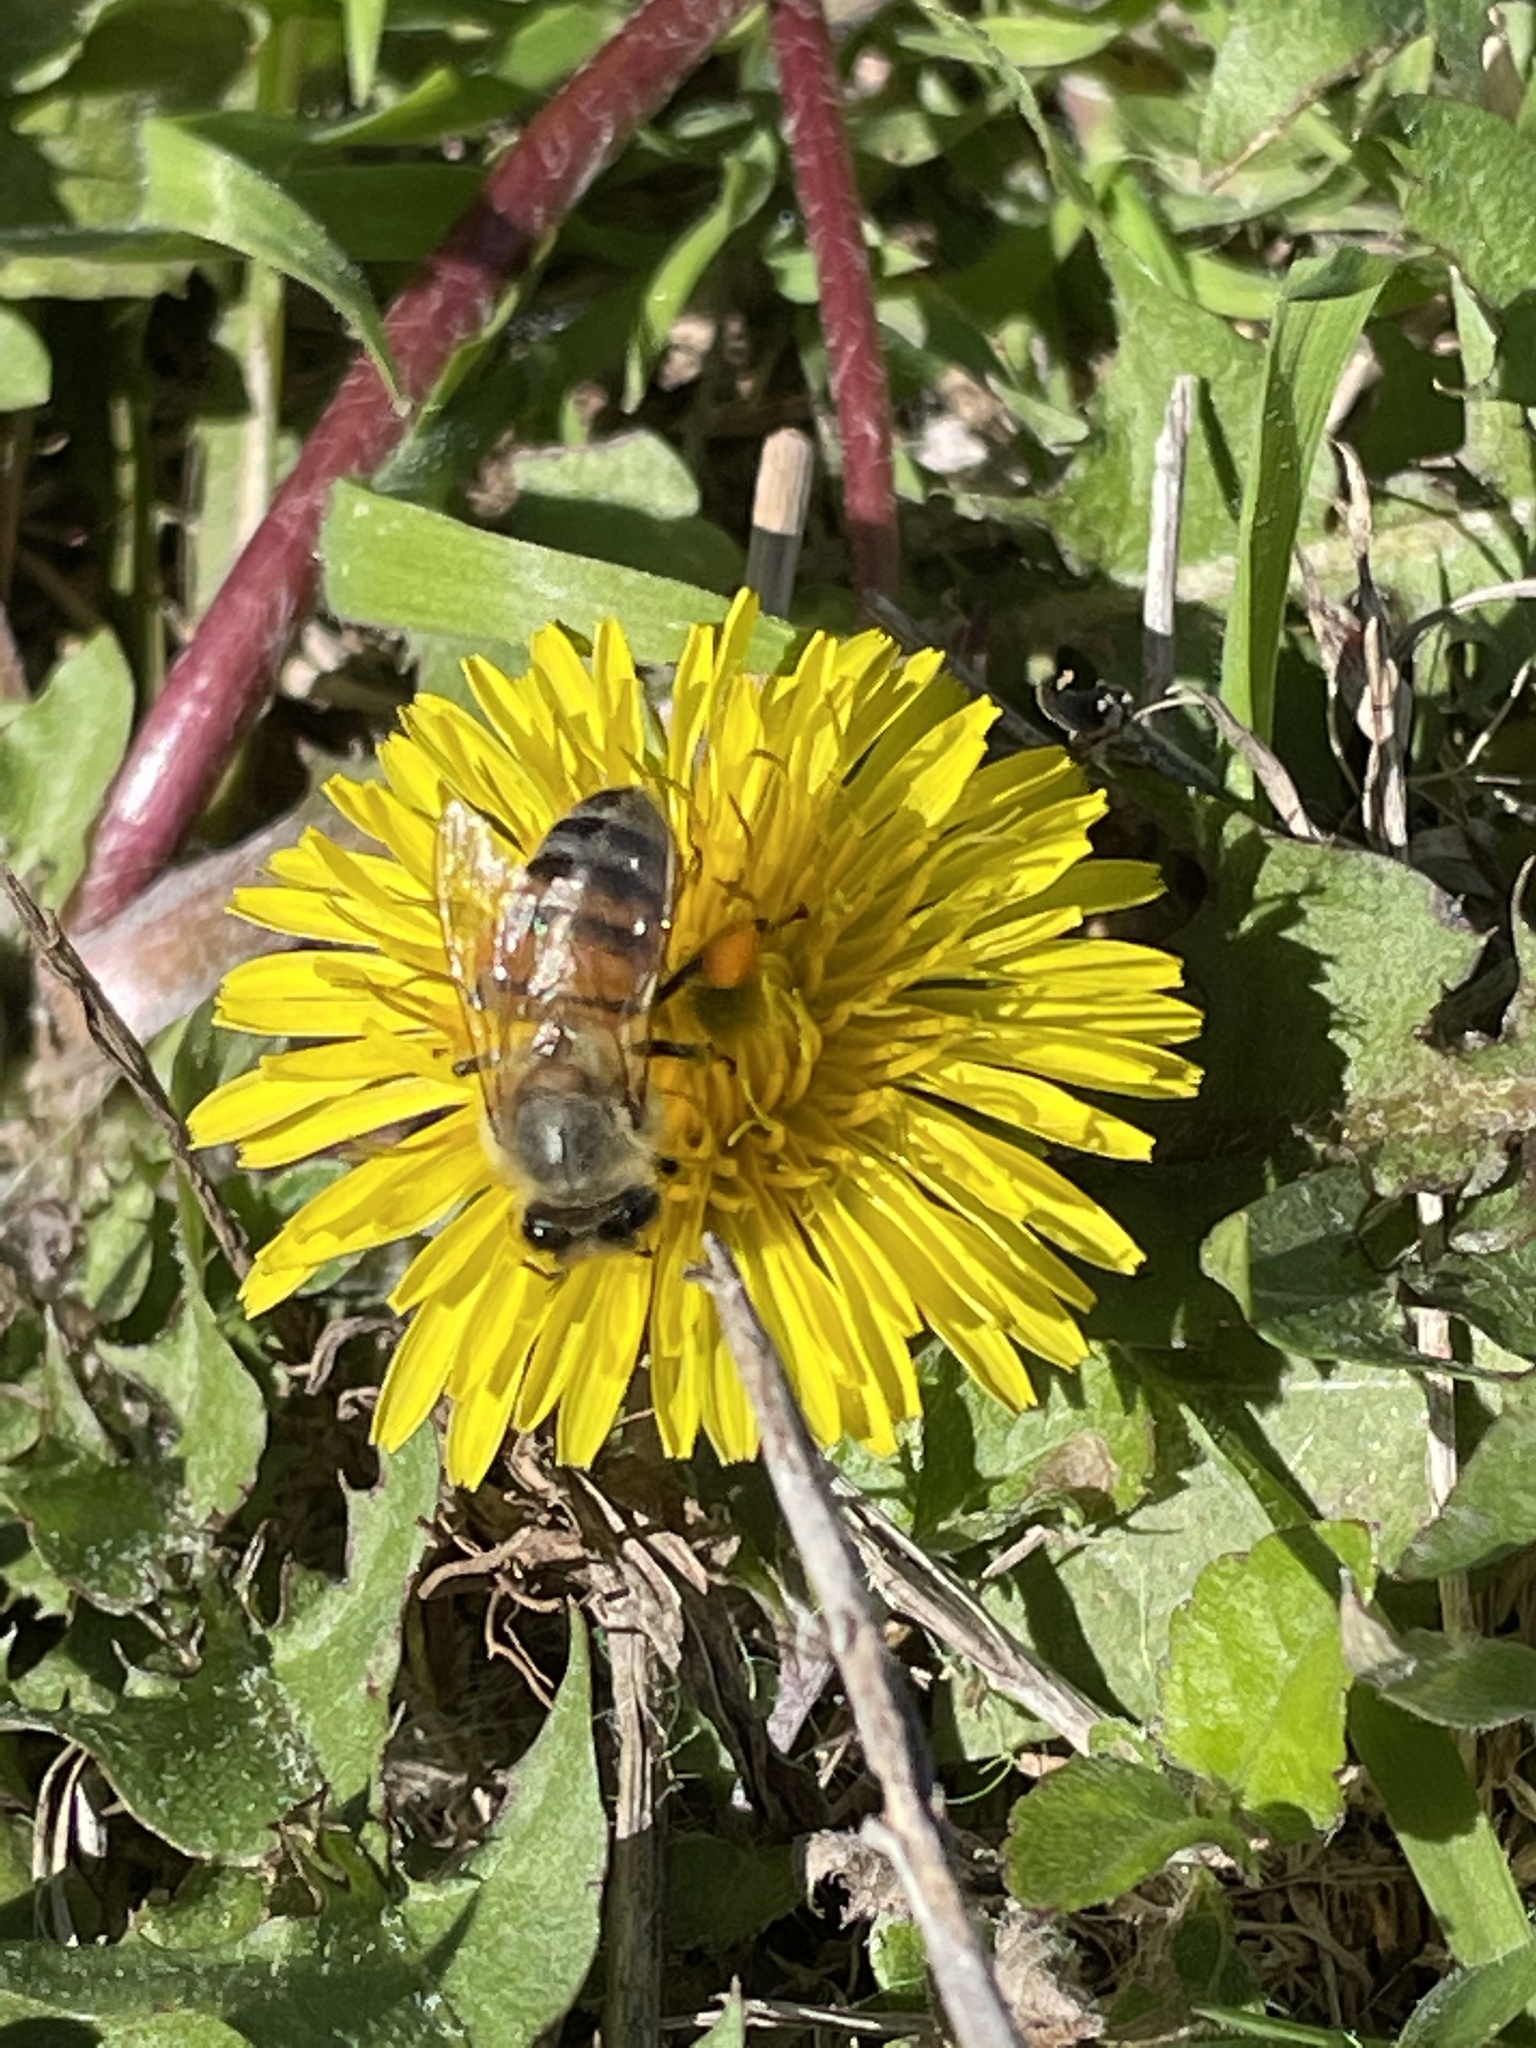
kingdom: Animalia
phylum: Arthropoda
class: Insecta
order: Hymenoptera
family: Apidae
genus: Apis
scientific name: Apis mellifera
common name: Honey bee
